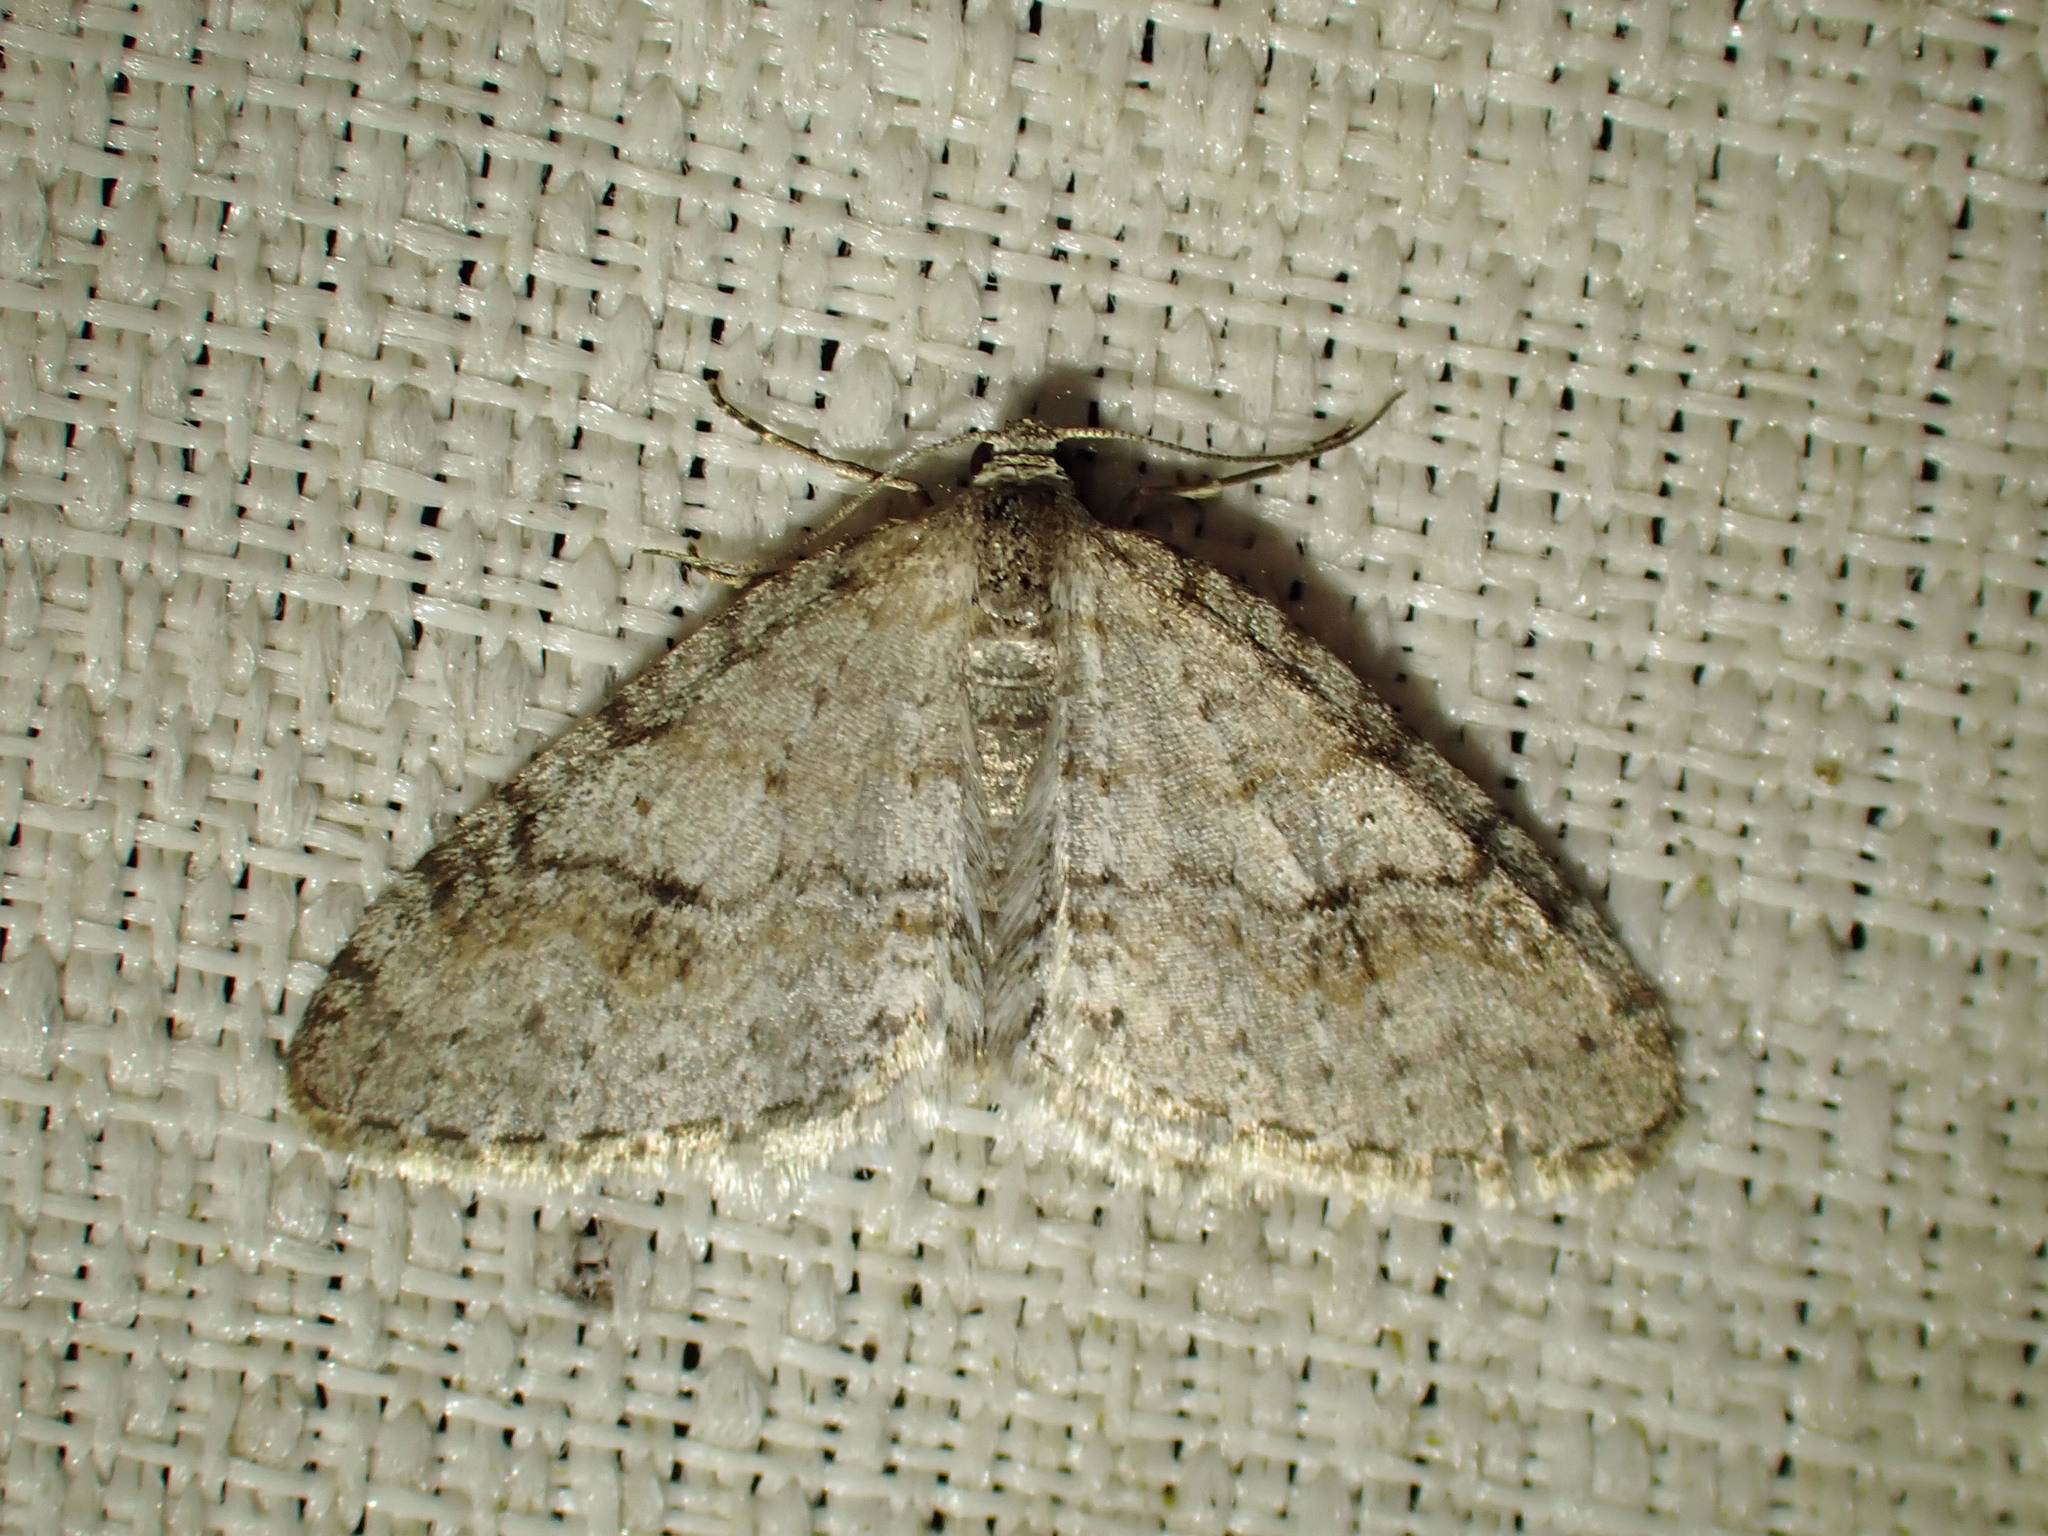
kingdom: Animalia
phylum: Arthropoda
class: Insecta
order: Lepidoptera
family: Geometridae
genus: Venusia
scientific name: Venusia comptaria
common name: Brown-shaded carpet
